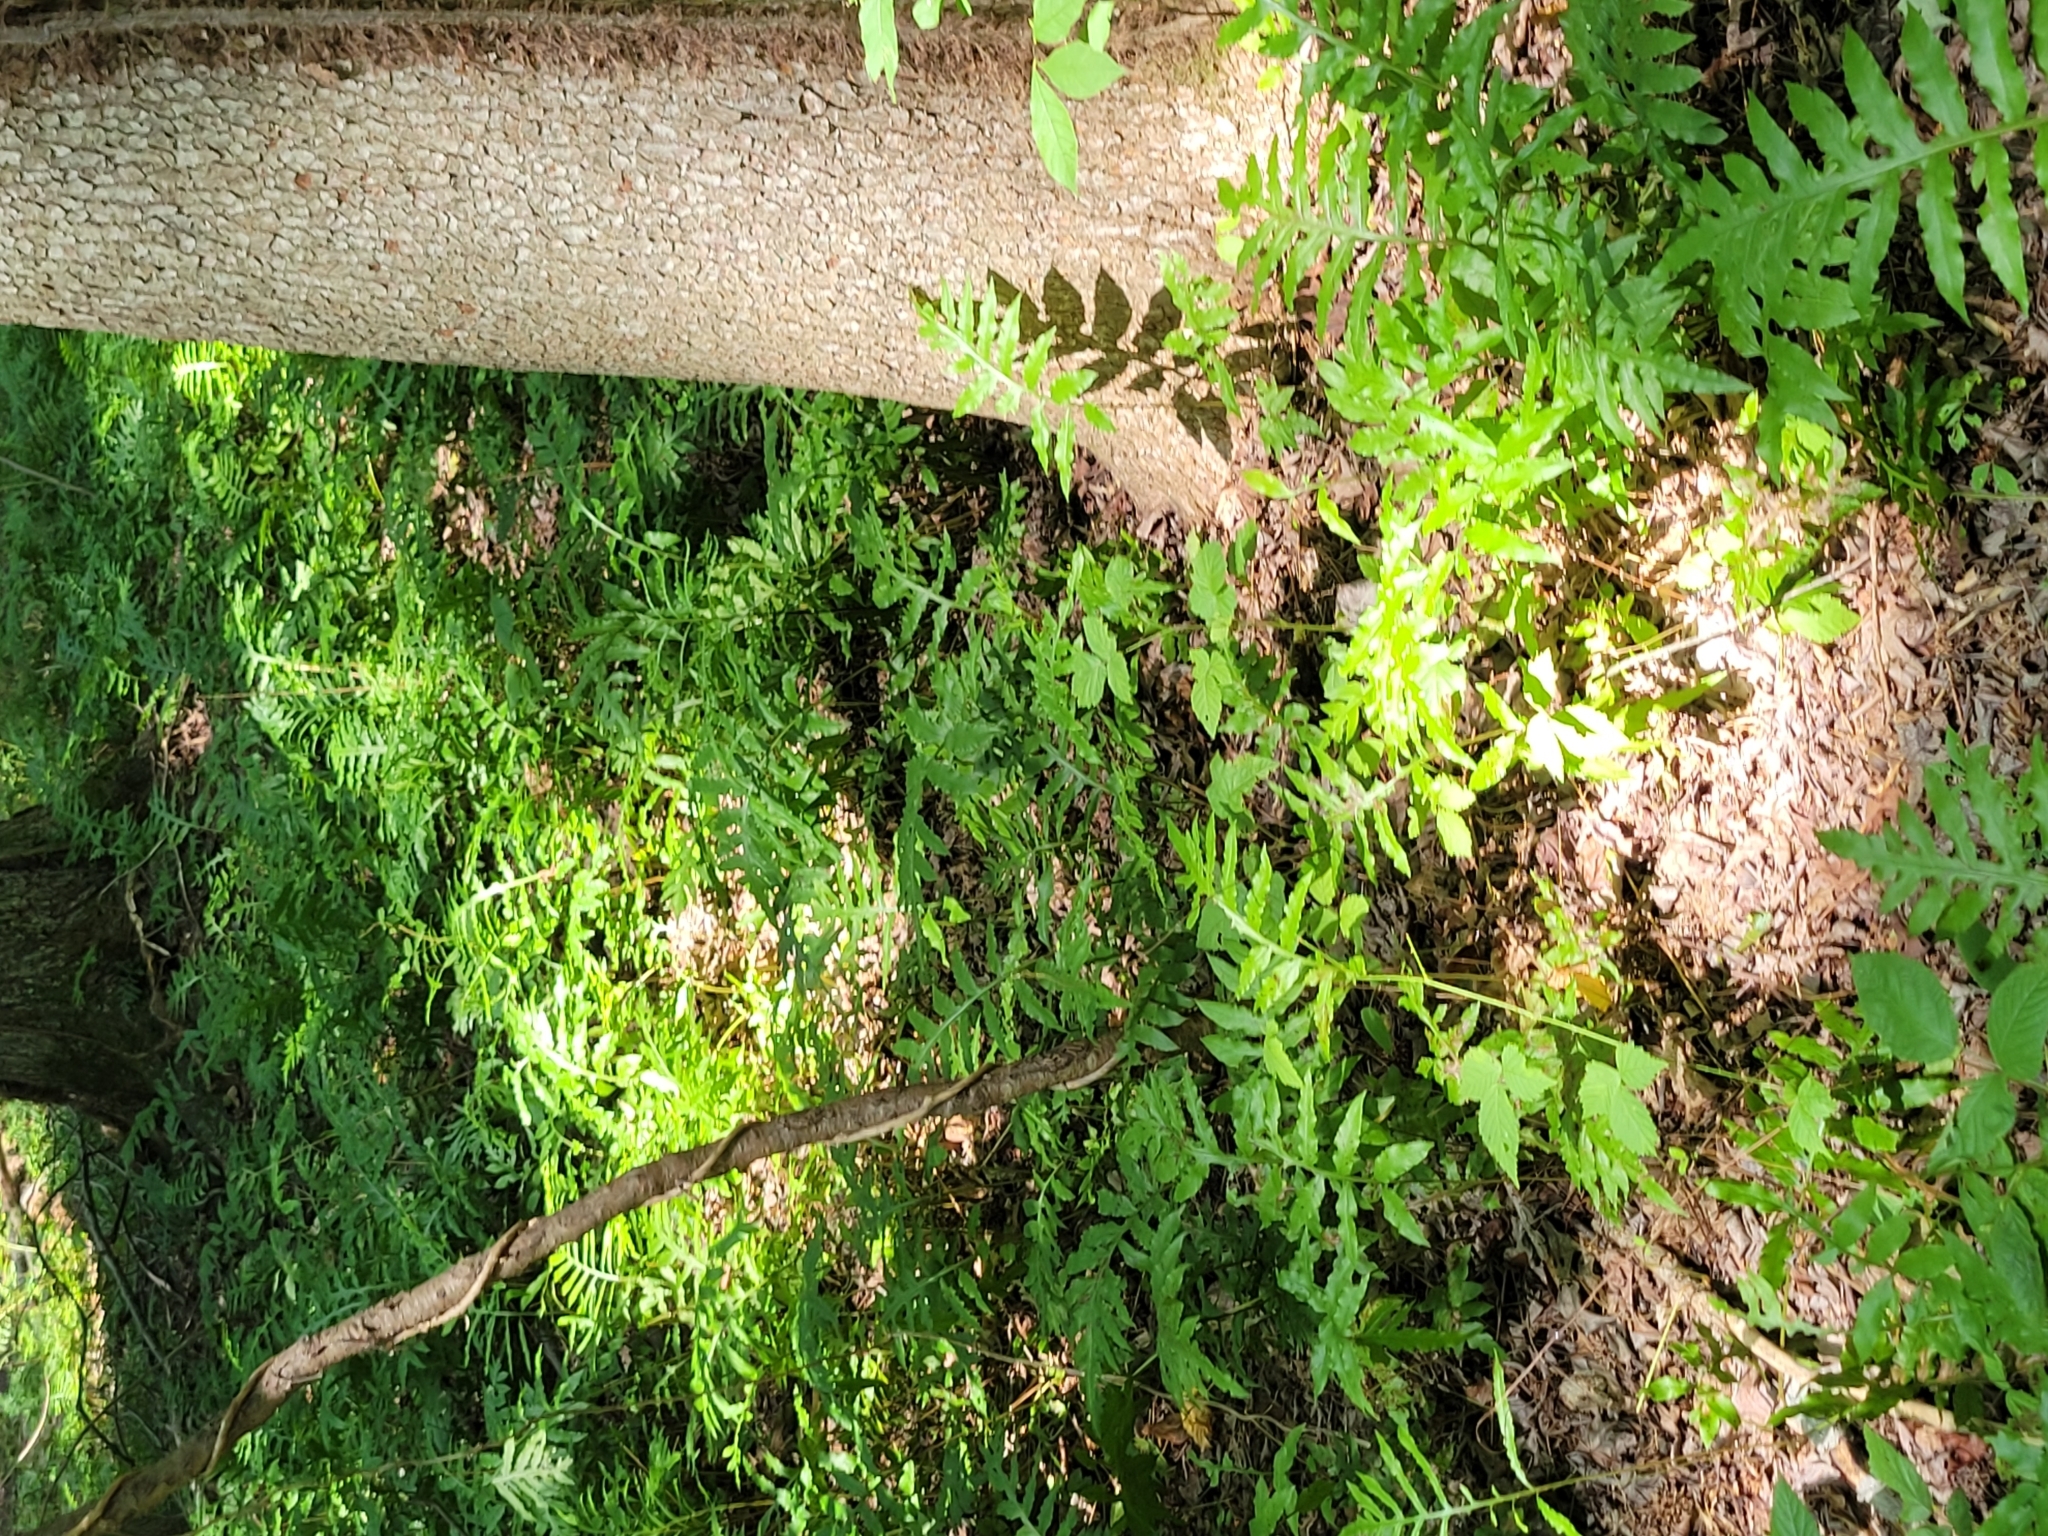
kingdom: Plantae
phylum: Tracheophyta
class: Polypodiopsida
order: Polypodiales
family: Blechnaceae
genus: Lorinseria
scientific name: Lorinseria areolata
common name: Dwarf chain fern
